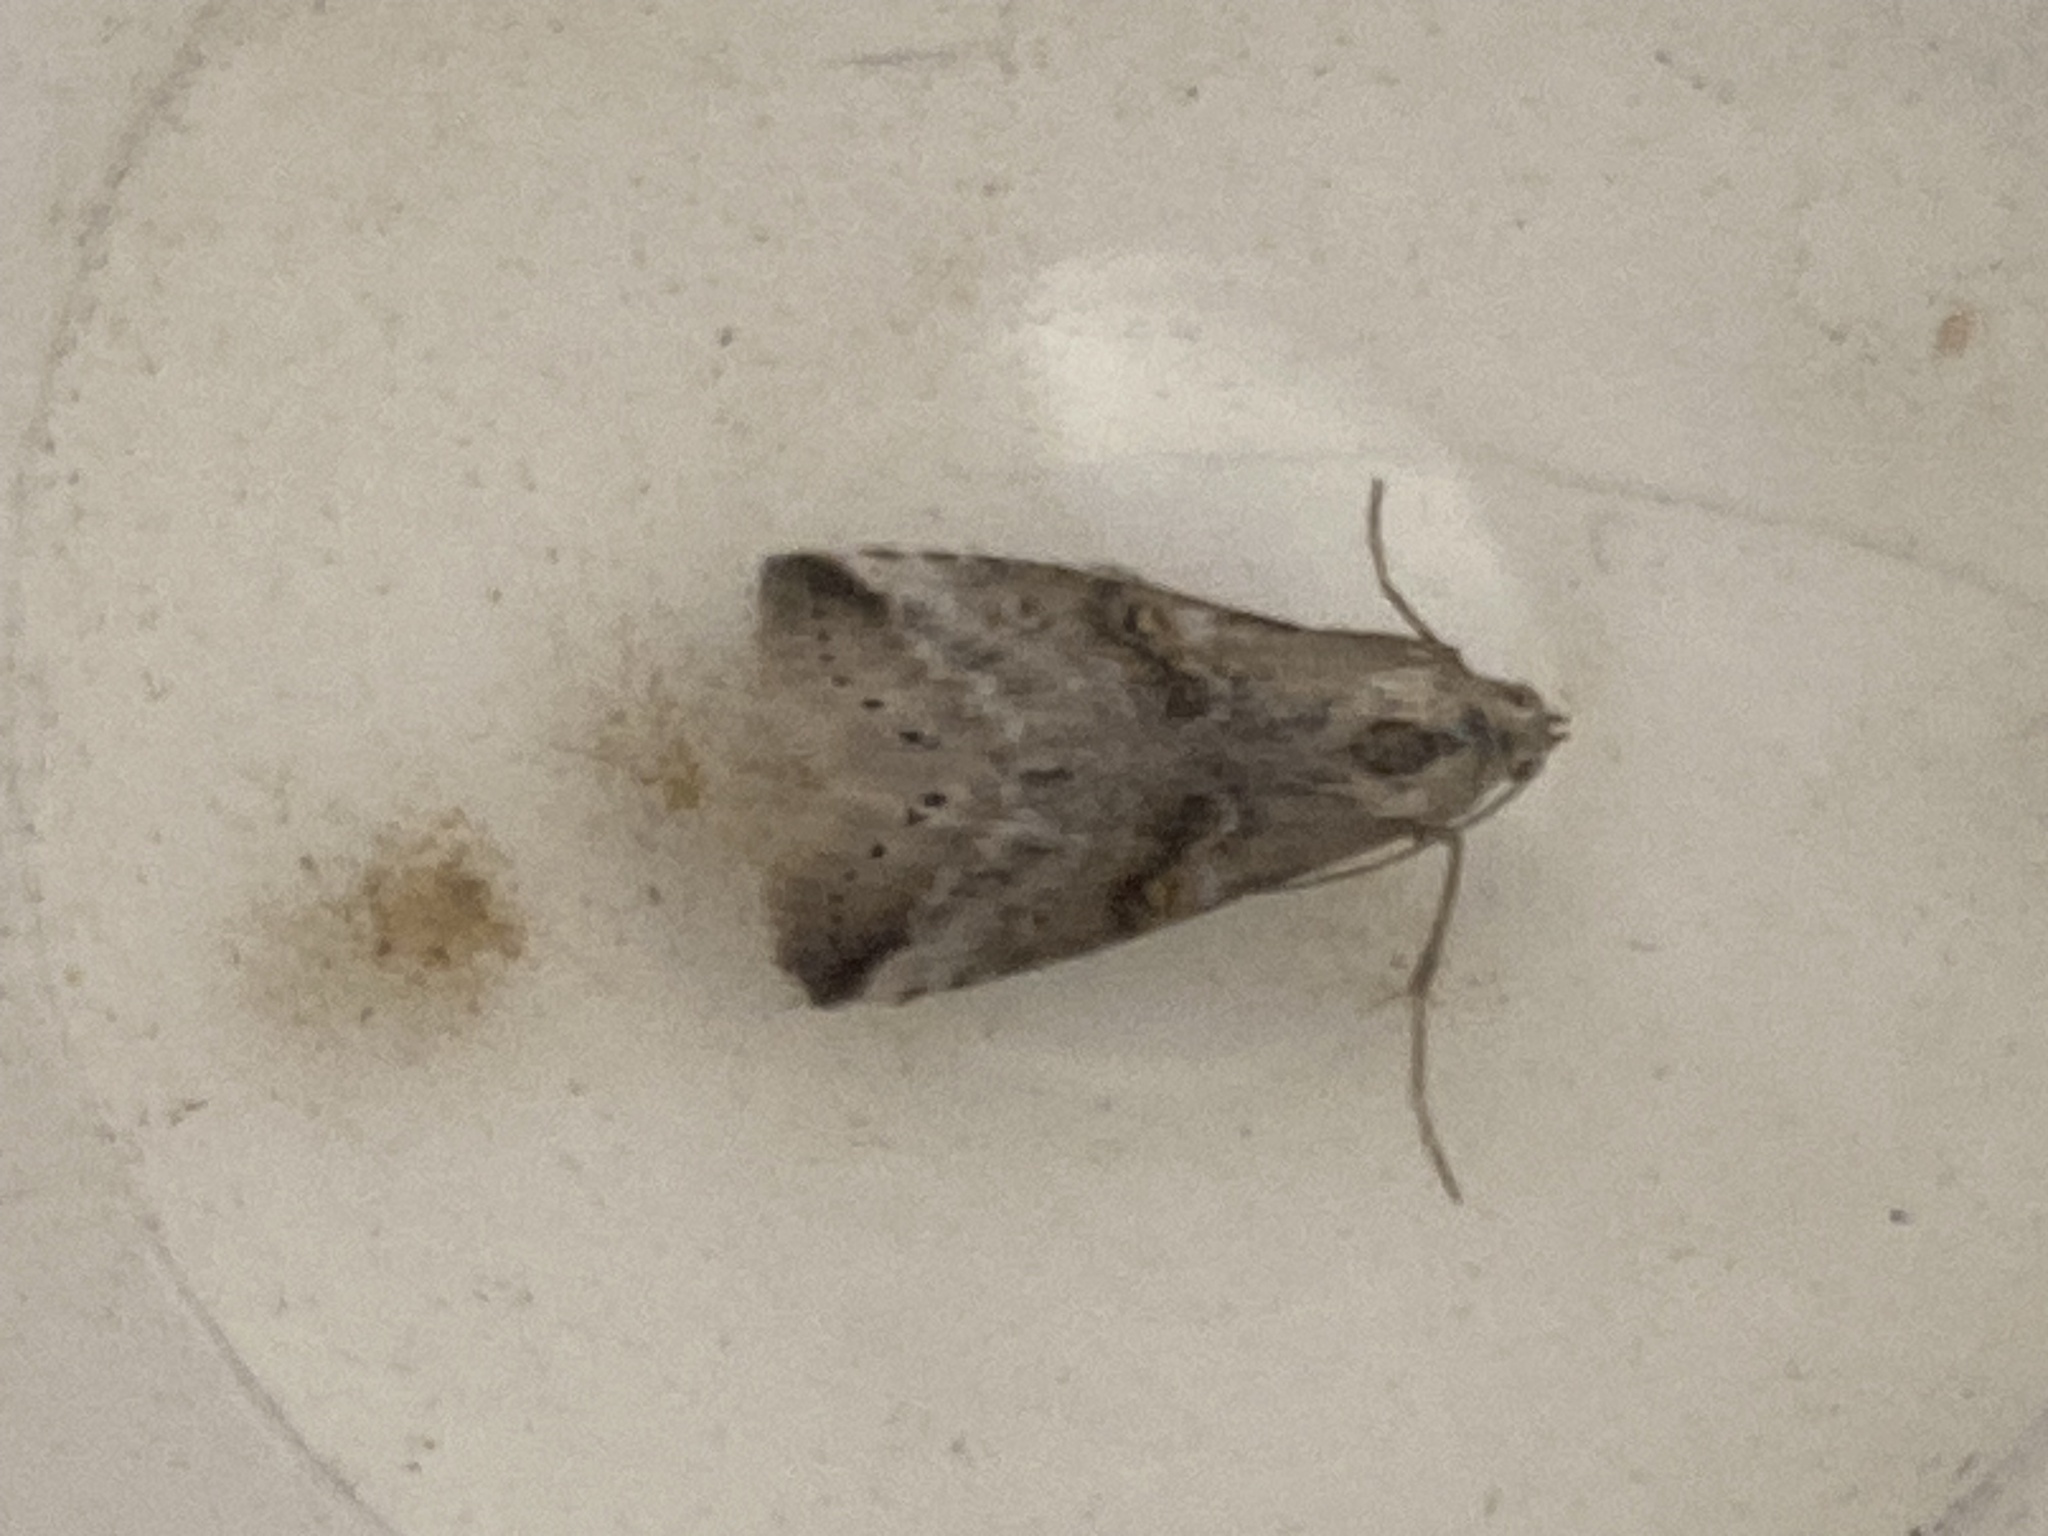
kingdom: Animalia
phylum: Arthropoda
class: Insecta
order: Lepidoptera
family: Erebidae
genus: Zebeeba
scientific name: Zebeeba falsalis
